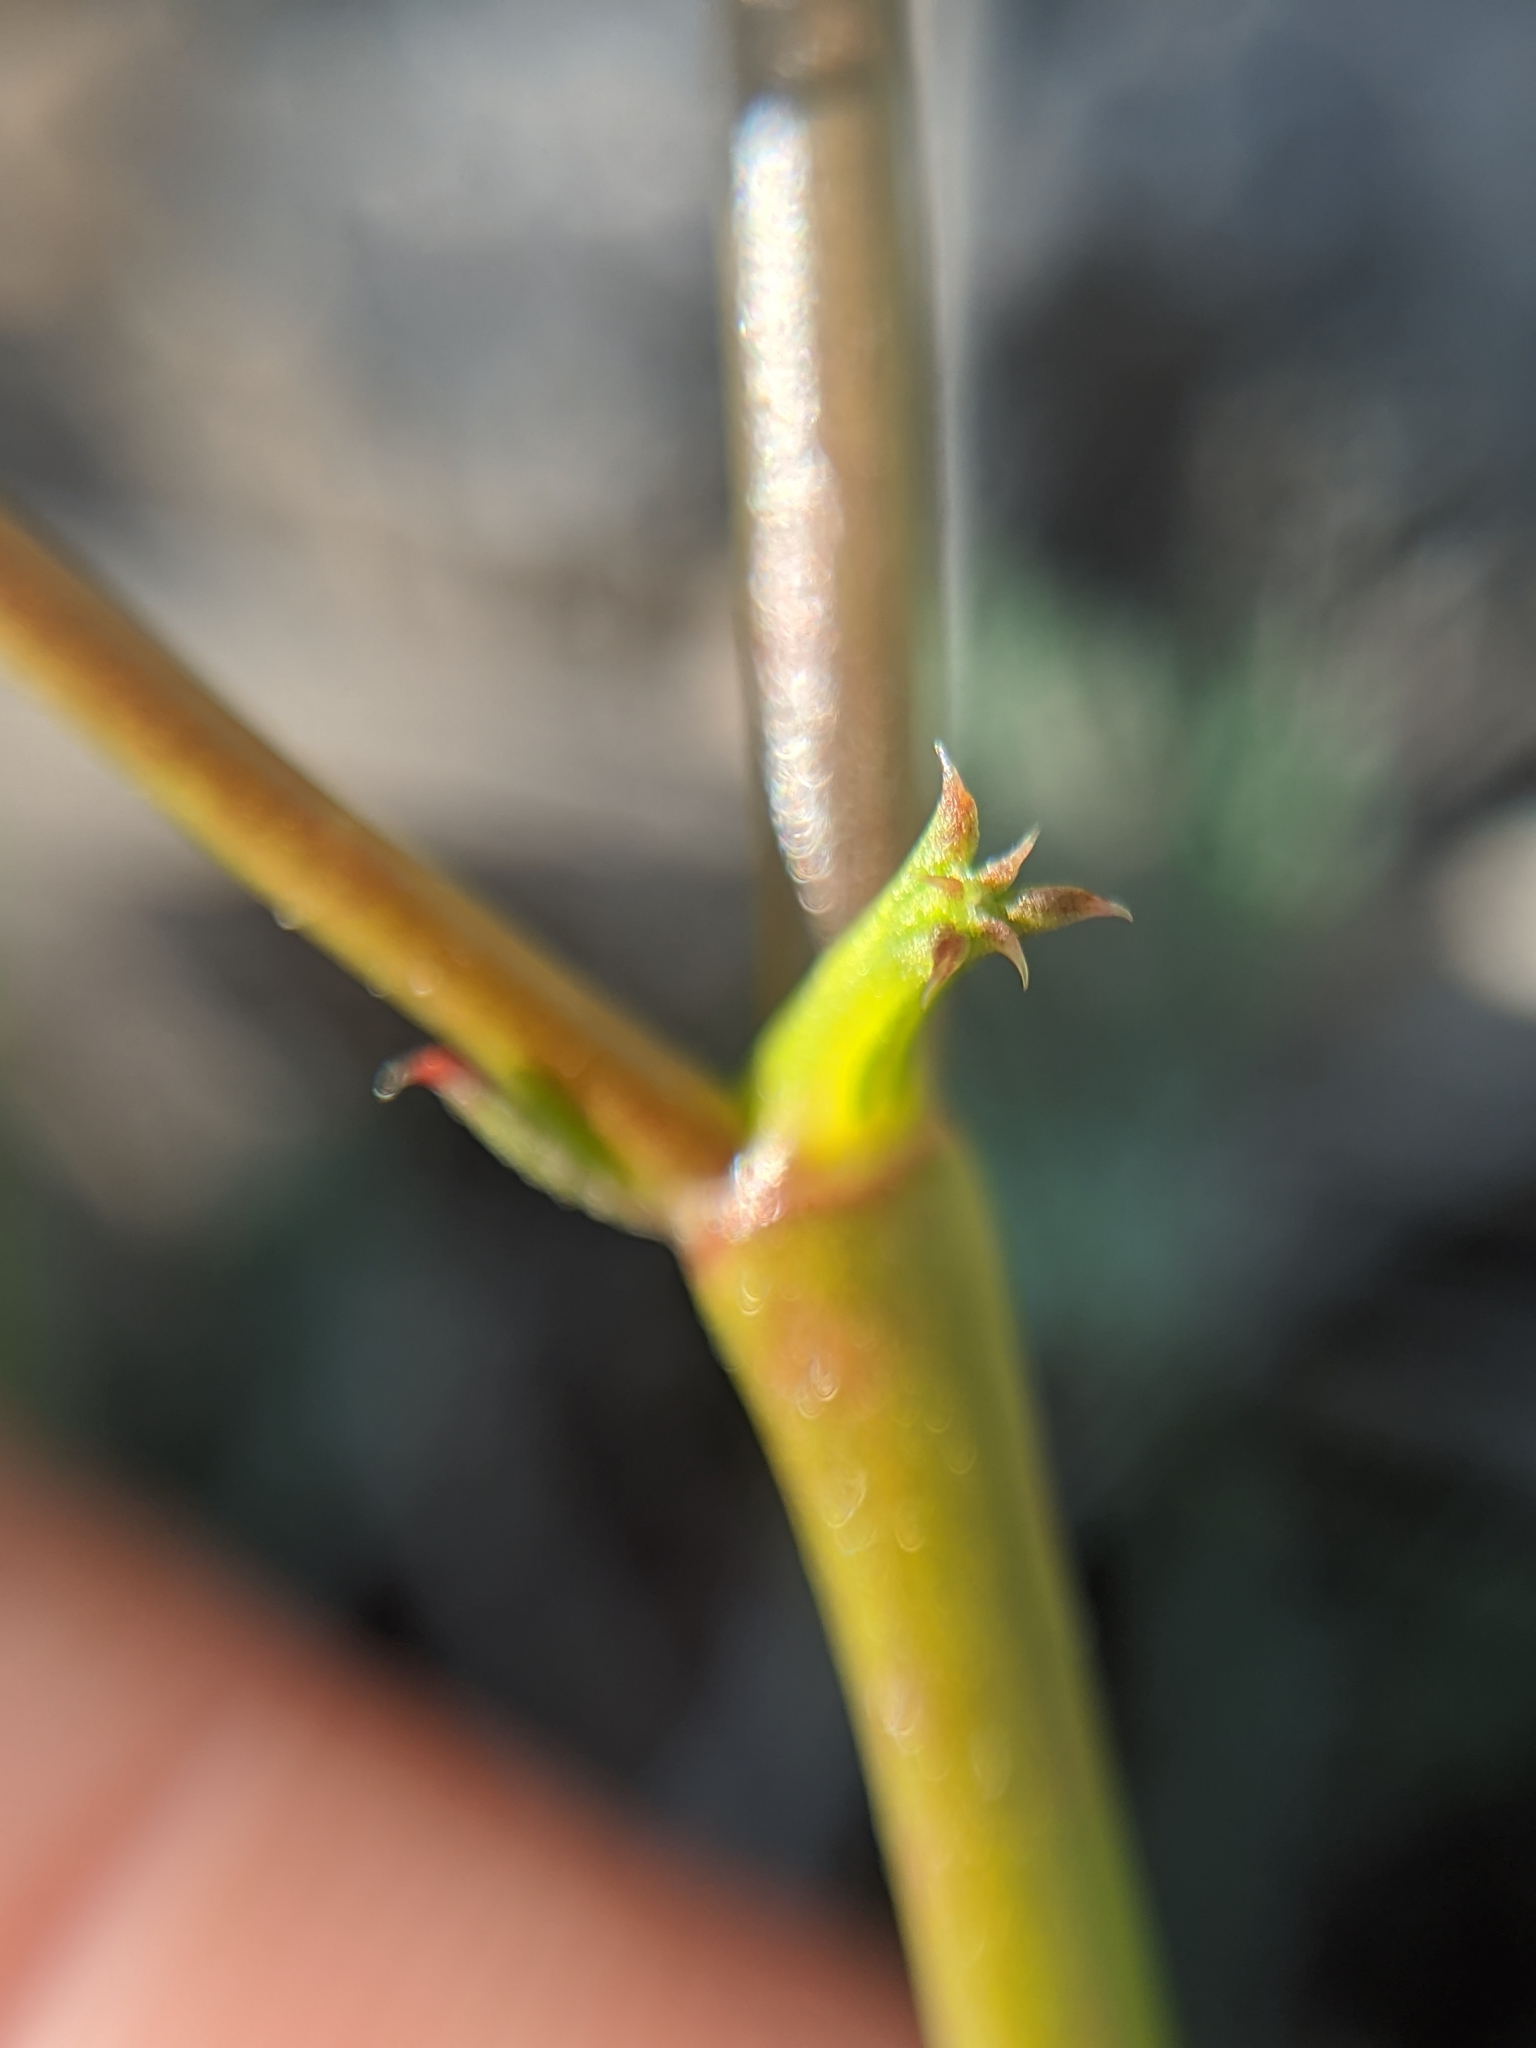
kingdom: Plantae
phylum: Tracheophyta
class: Magnoliopsida
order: Caryophyllales
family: Polygonaceae
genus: Chorizanthe
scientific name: Chorizanthe brevicornu
